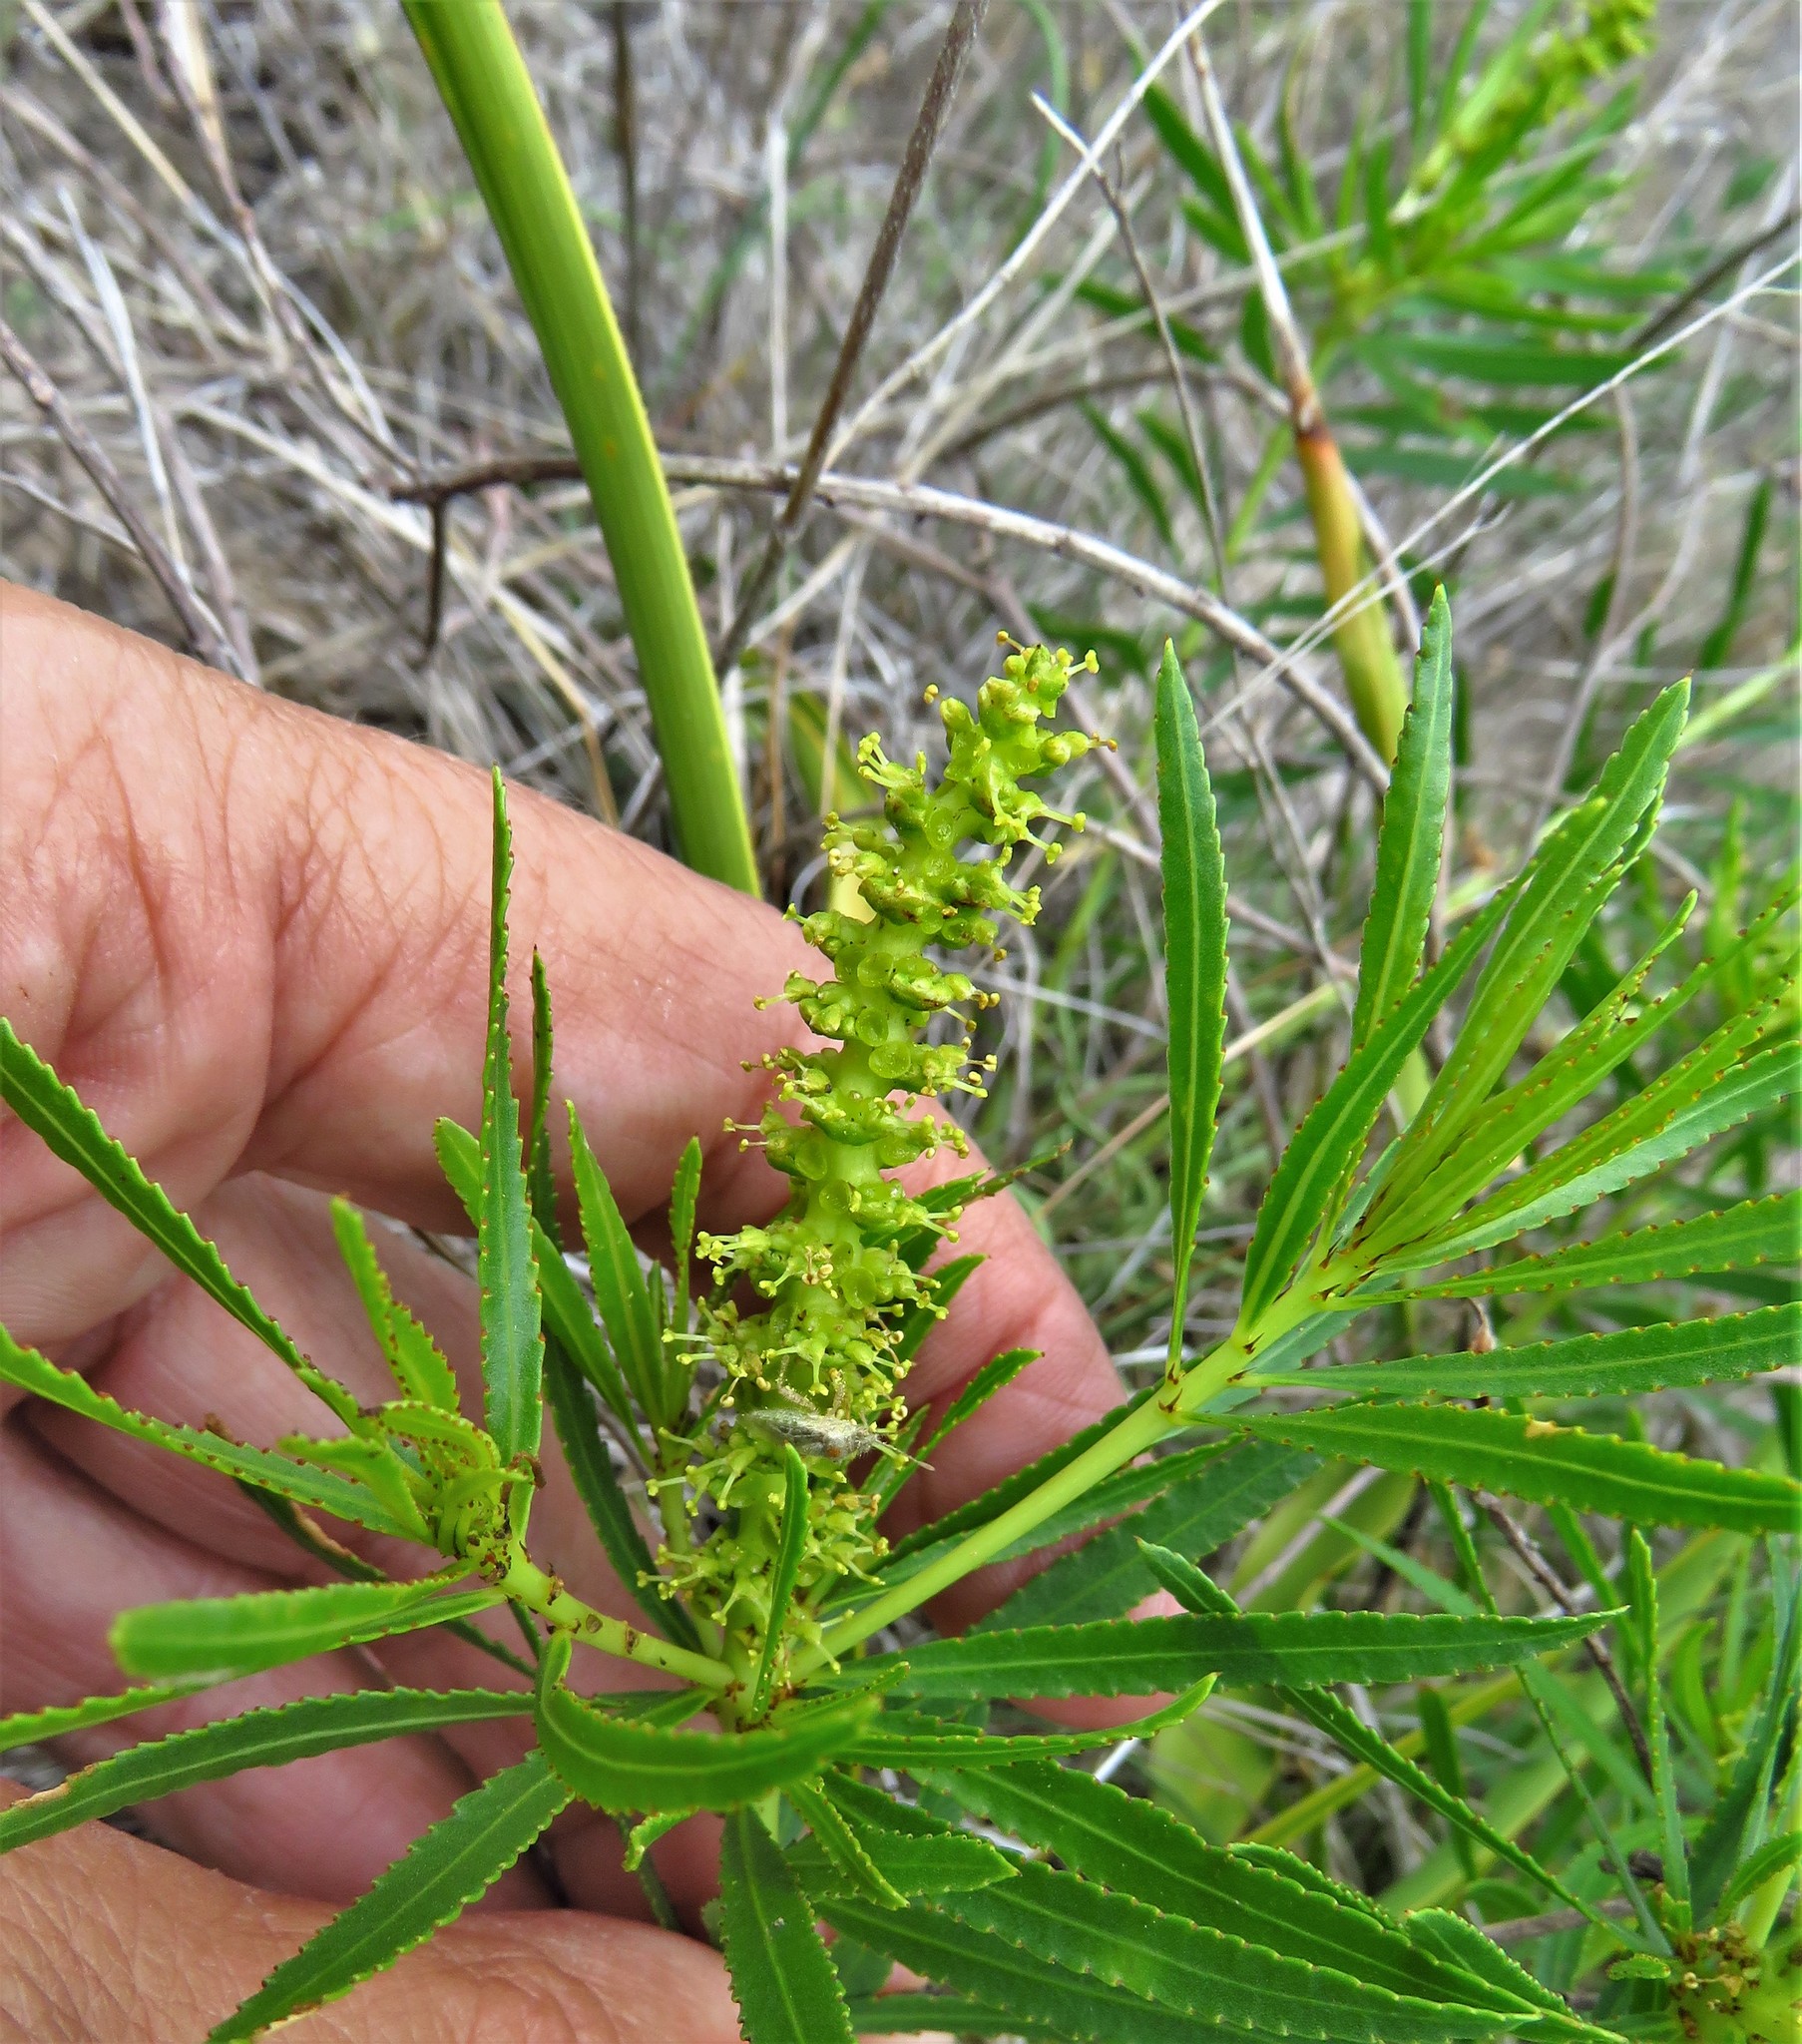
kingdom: Plantae
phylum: Tracheophyta
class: Magnoliopsida
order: Malpighiales
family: Euphorbiaceae
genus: Stillingia
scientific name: Stillingia texana
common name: Texas stillingia
